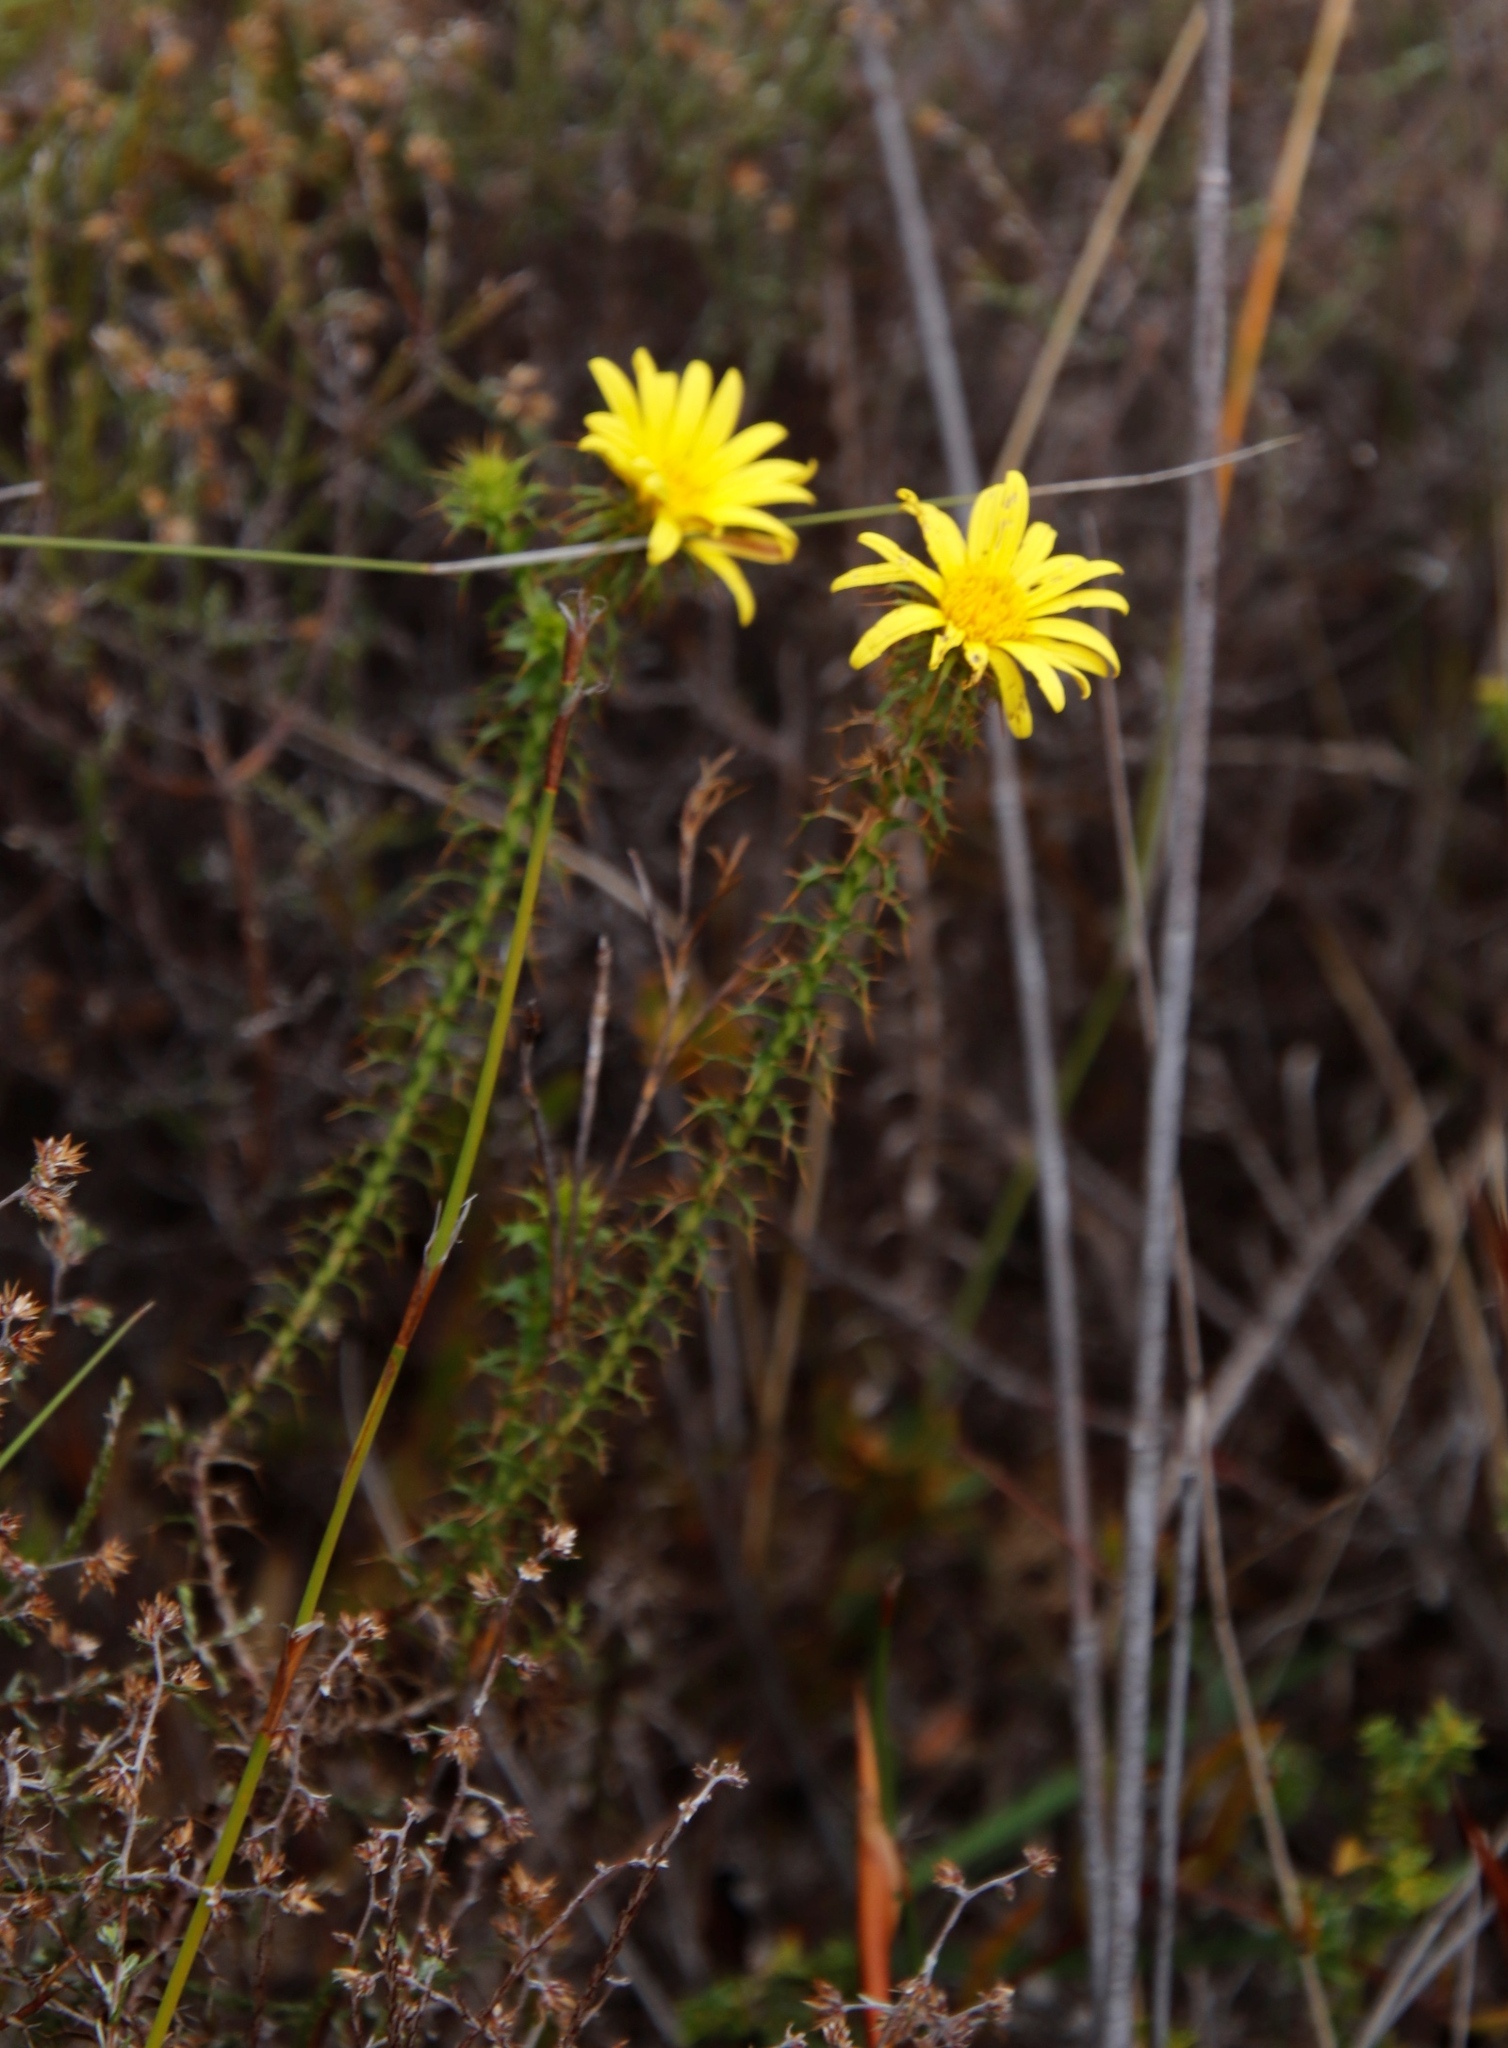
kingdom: Plantae
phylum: Tracheophyta
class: Magnoliopsida
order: Asterales
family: Asteraceae
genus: Cullumia
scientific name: Cullumia setosa
